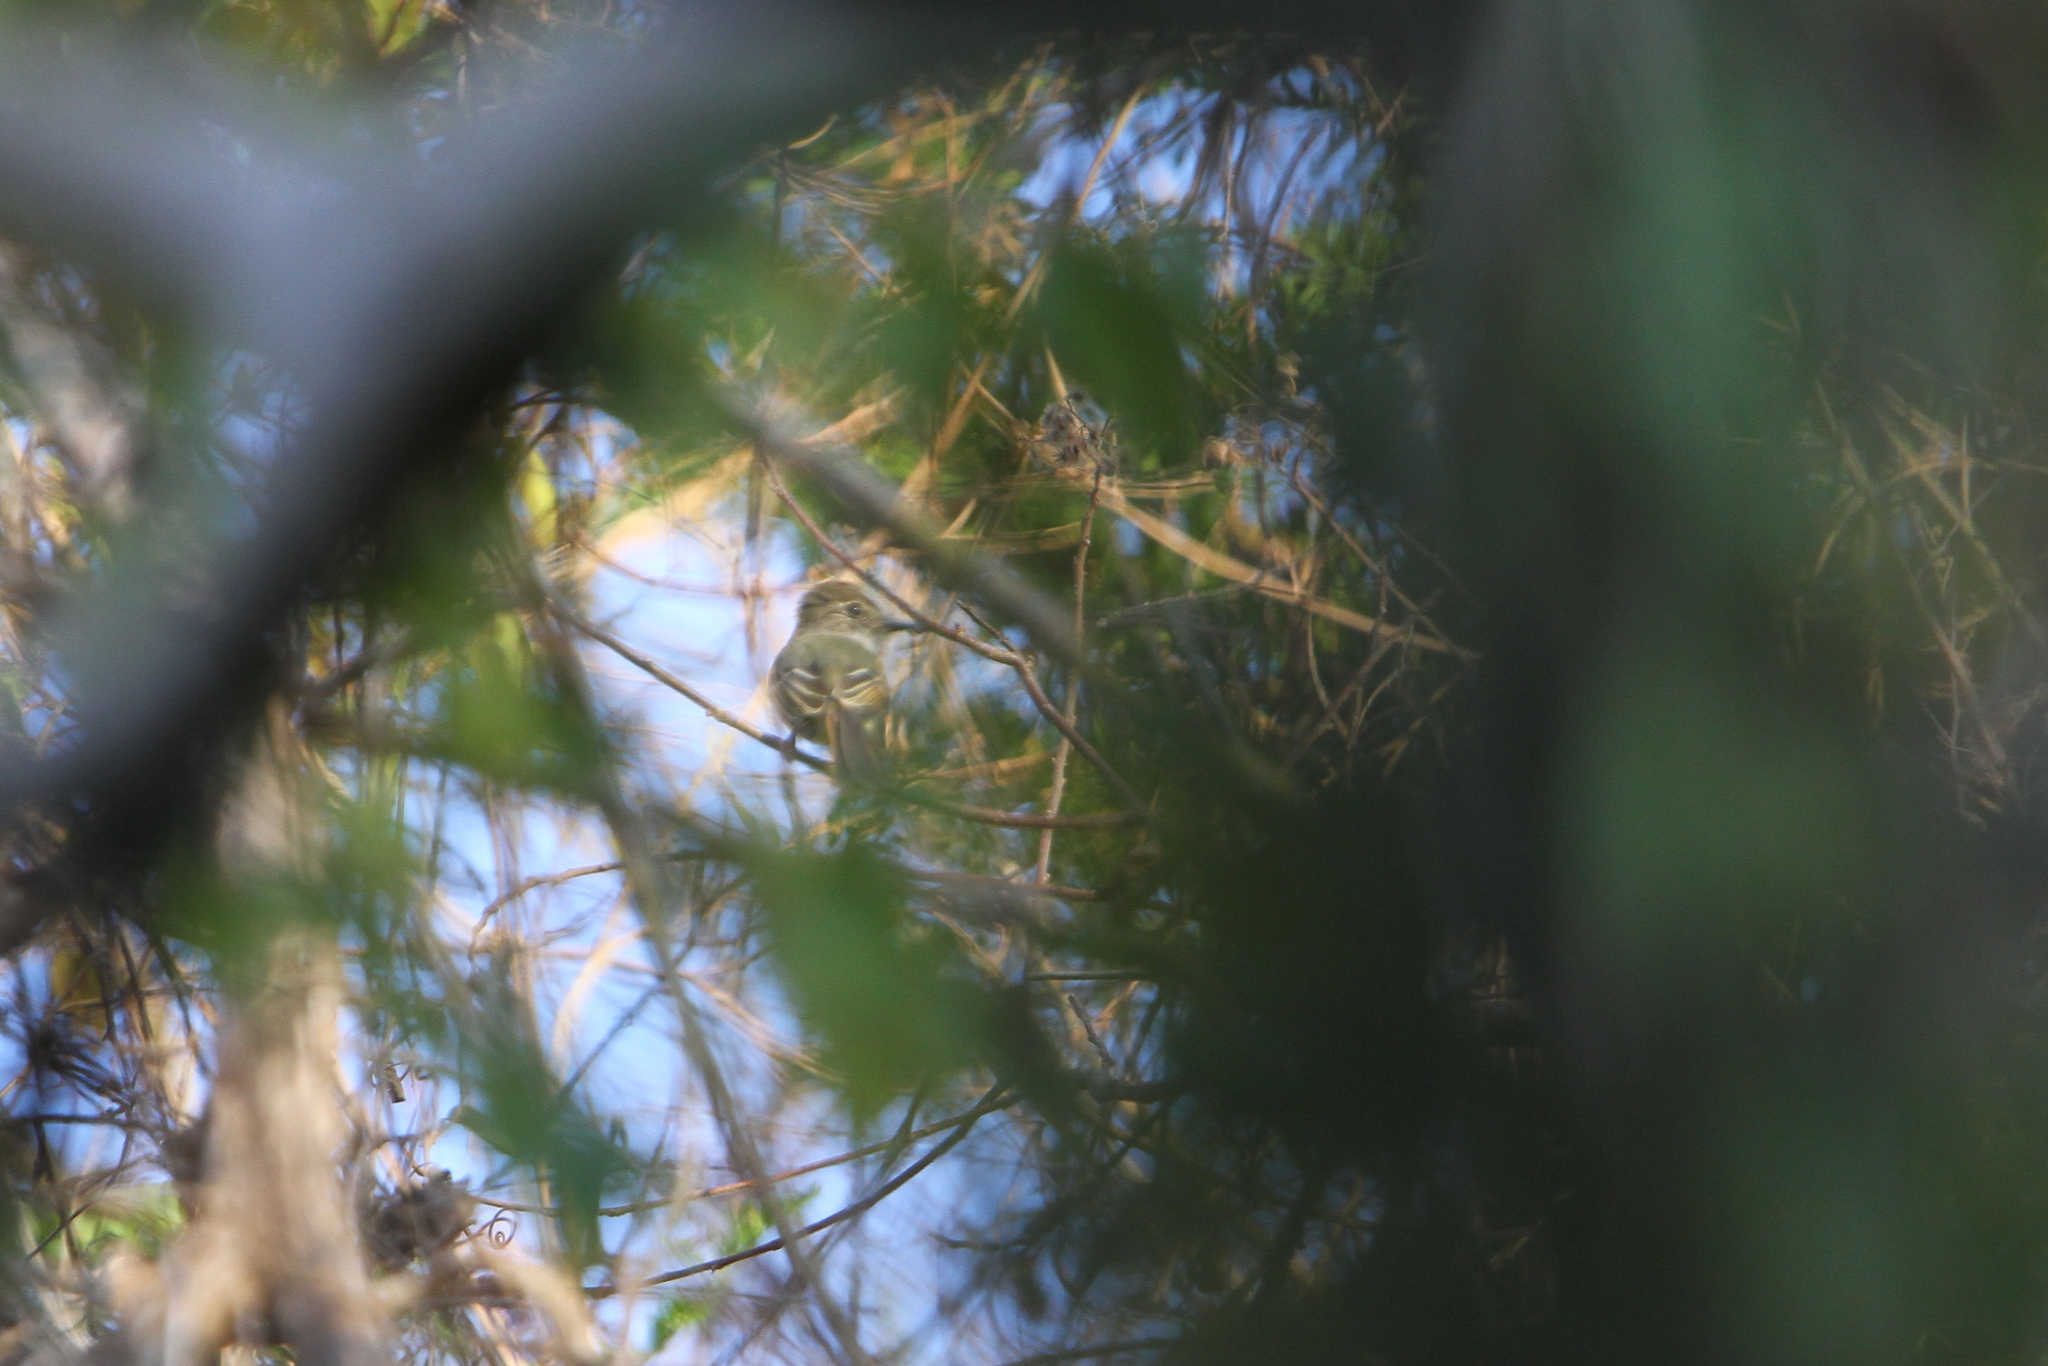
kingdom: Animalia
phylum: Chordata
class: Aves
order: Passeriformes
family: Tyrannidae
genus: Deltarhynchus
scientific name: Deltarhynchus flammulatus
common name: Flammulated flycatcher
